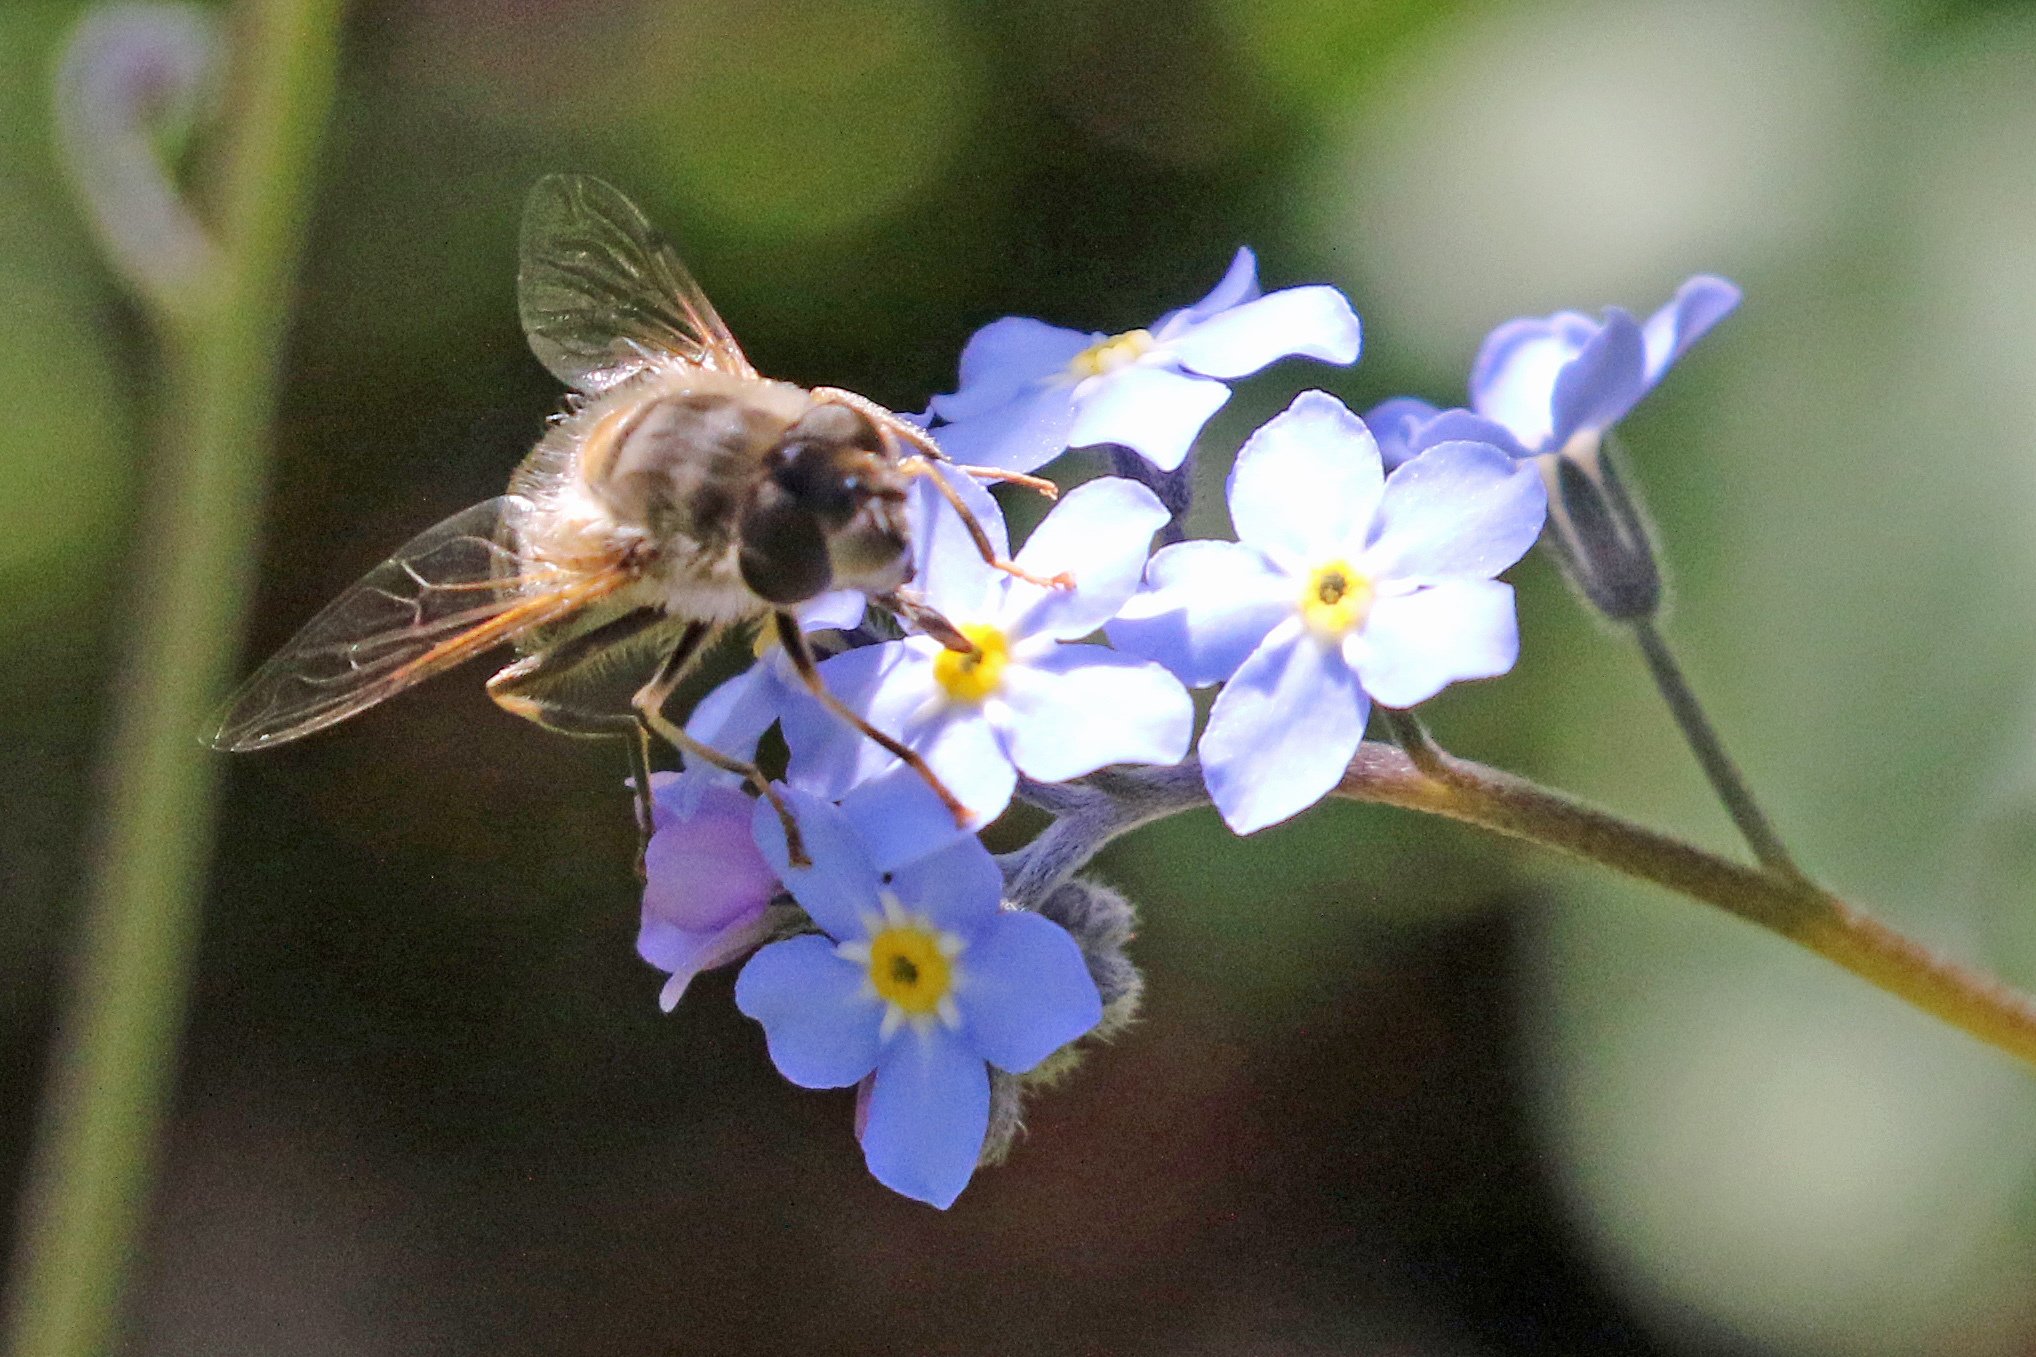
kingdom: Animalia
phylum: Arthropoda
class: Insecta
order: Diptera
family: Syrphidae
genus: Eristalis
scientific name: Eristalis pertinax
